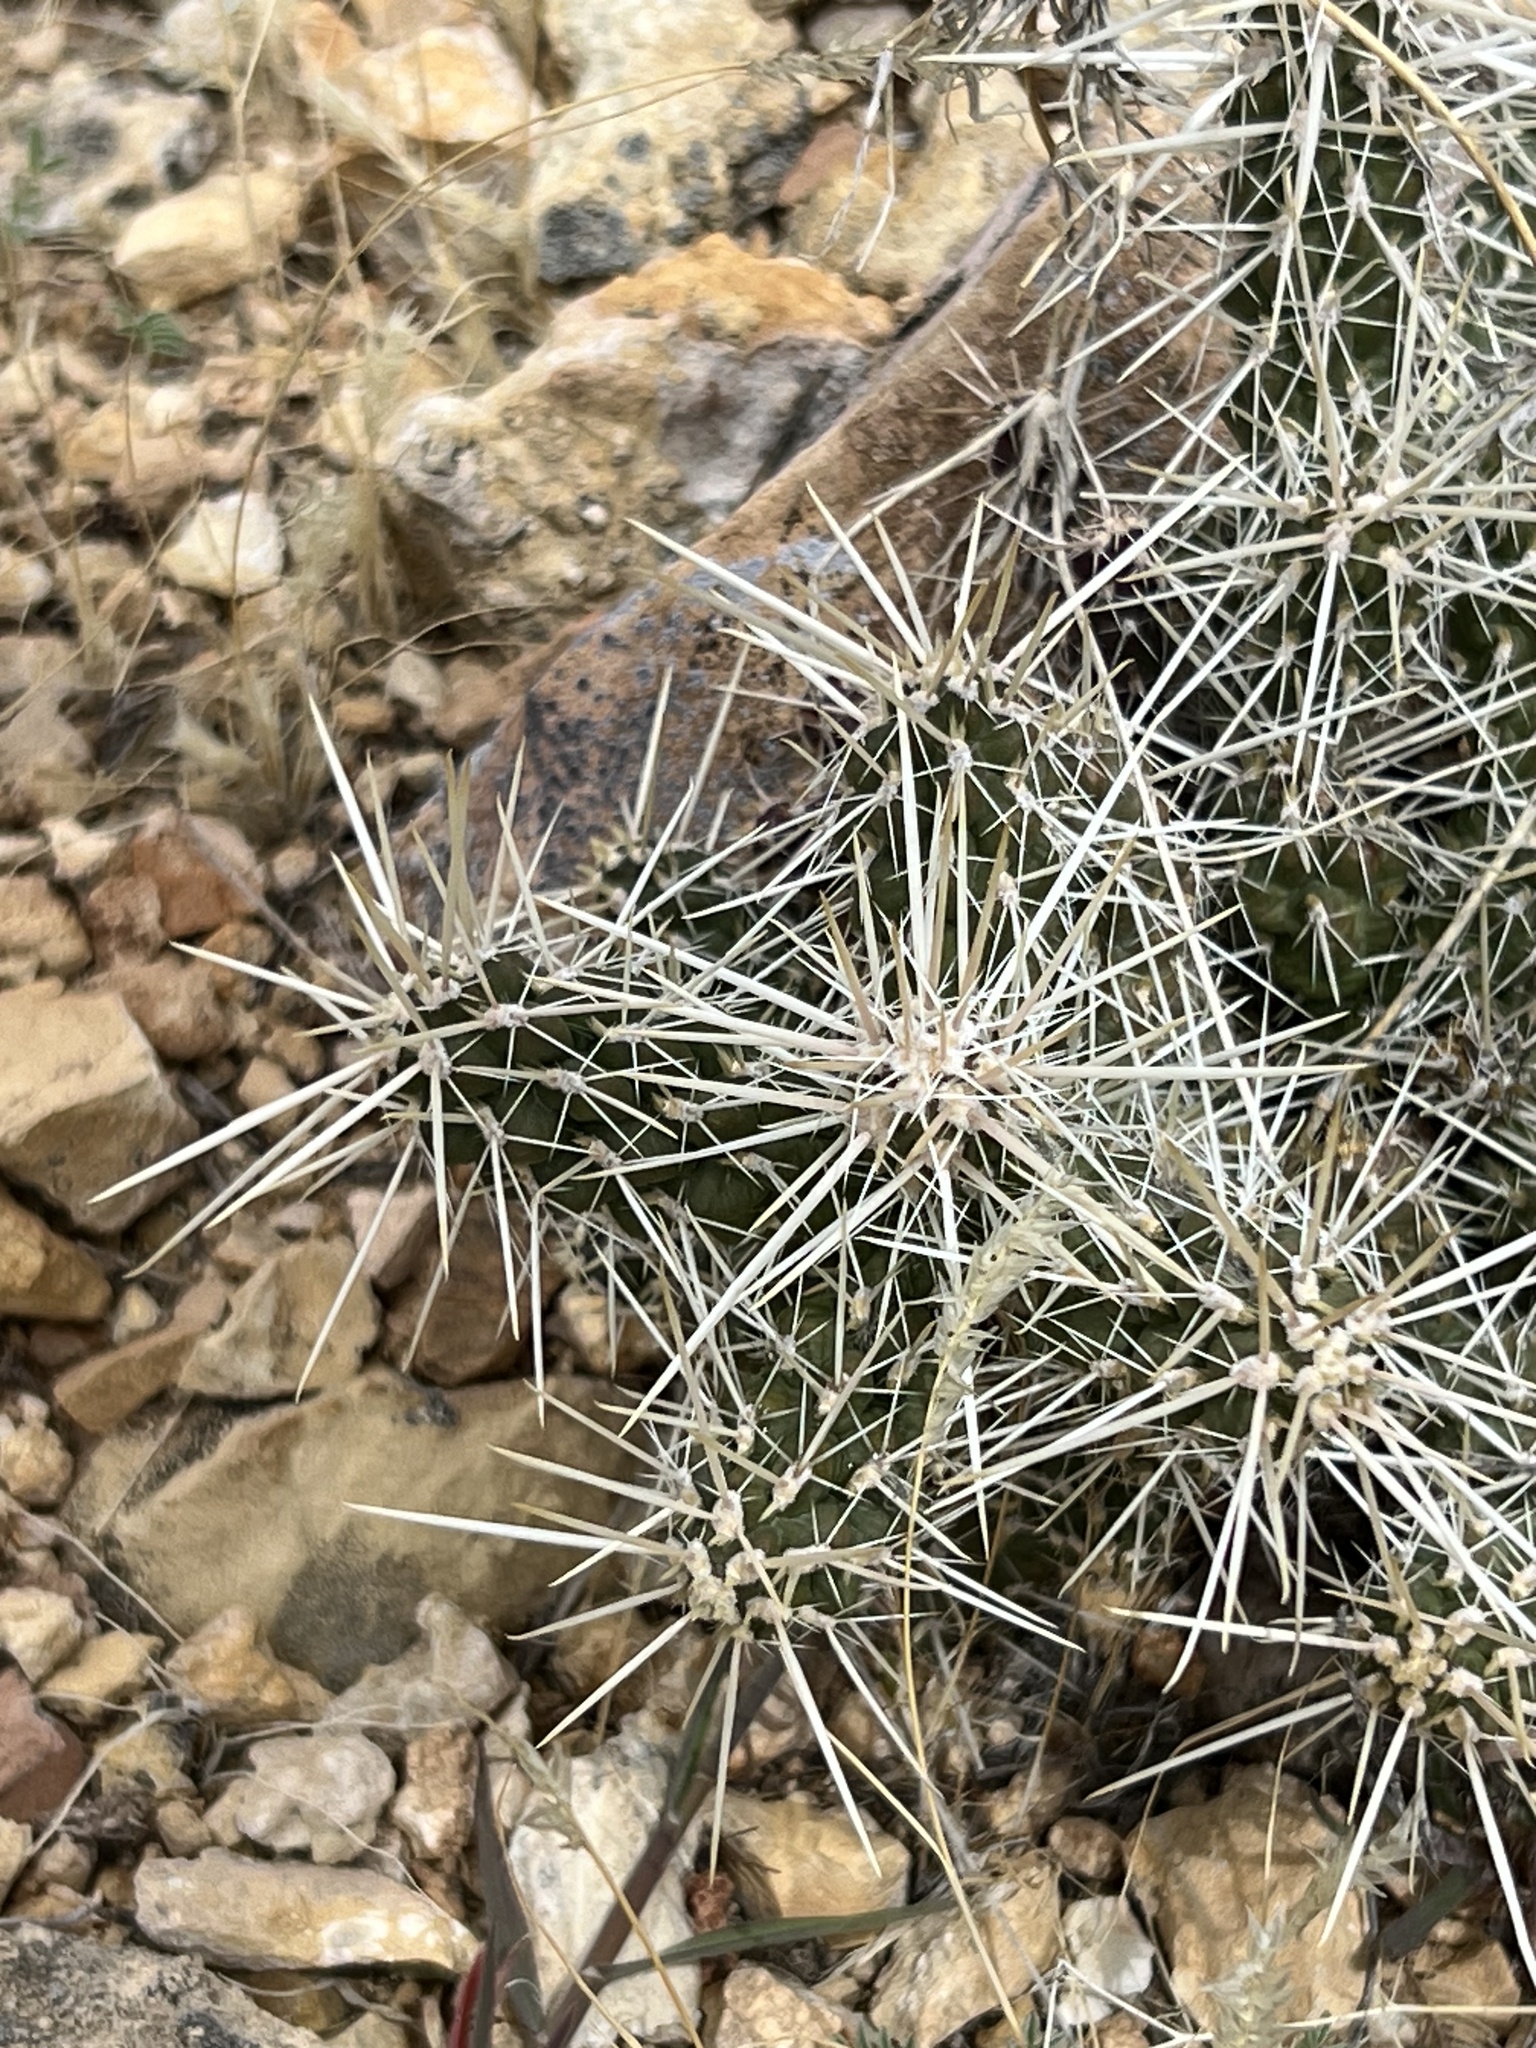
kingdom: Plantae
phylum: Tracheophyta
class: Magnoliopsida
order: Caryophyllales
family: Cactaceae
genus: Cylindropuntia
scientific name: Cylindropuntia whipplei
